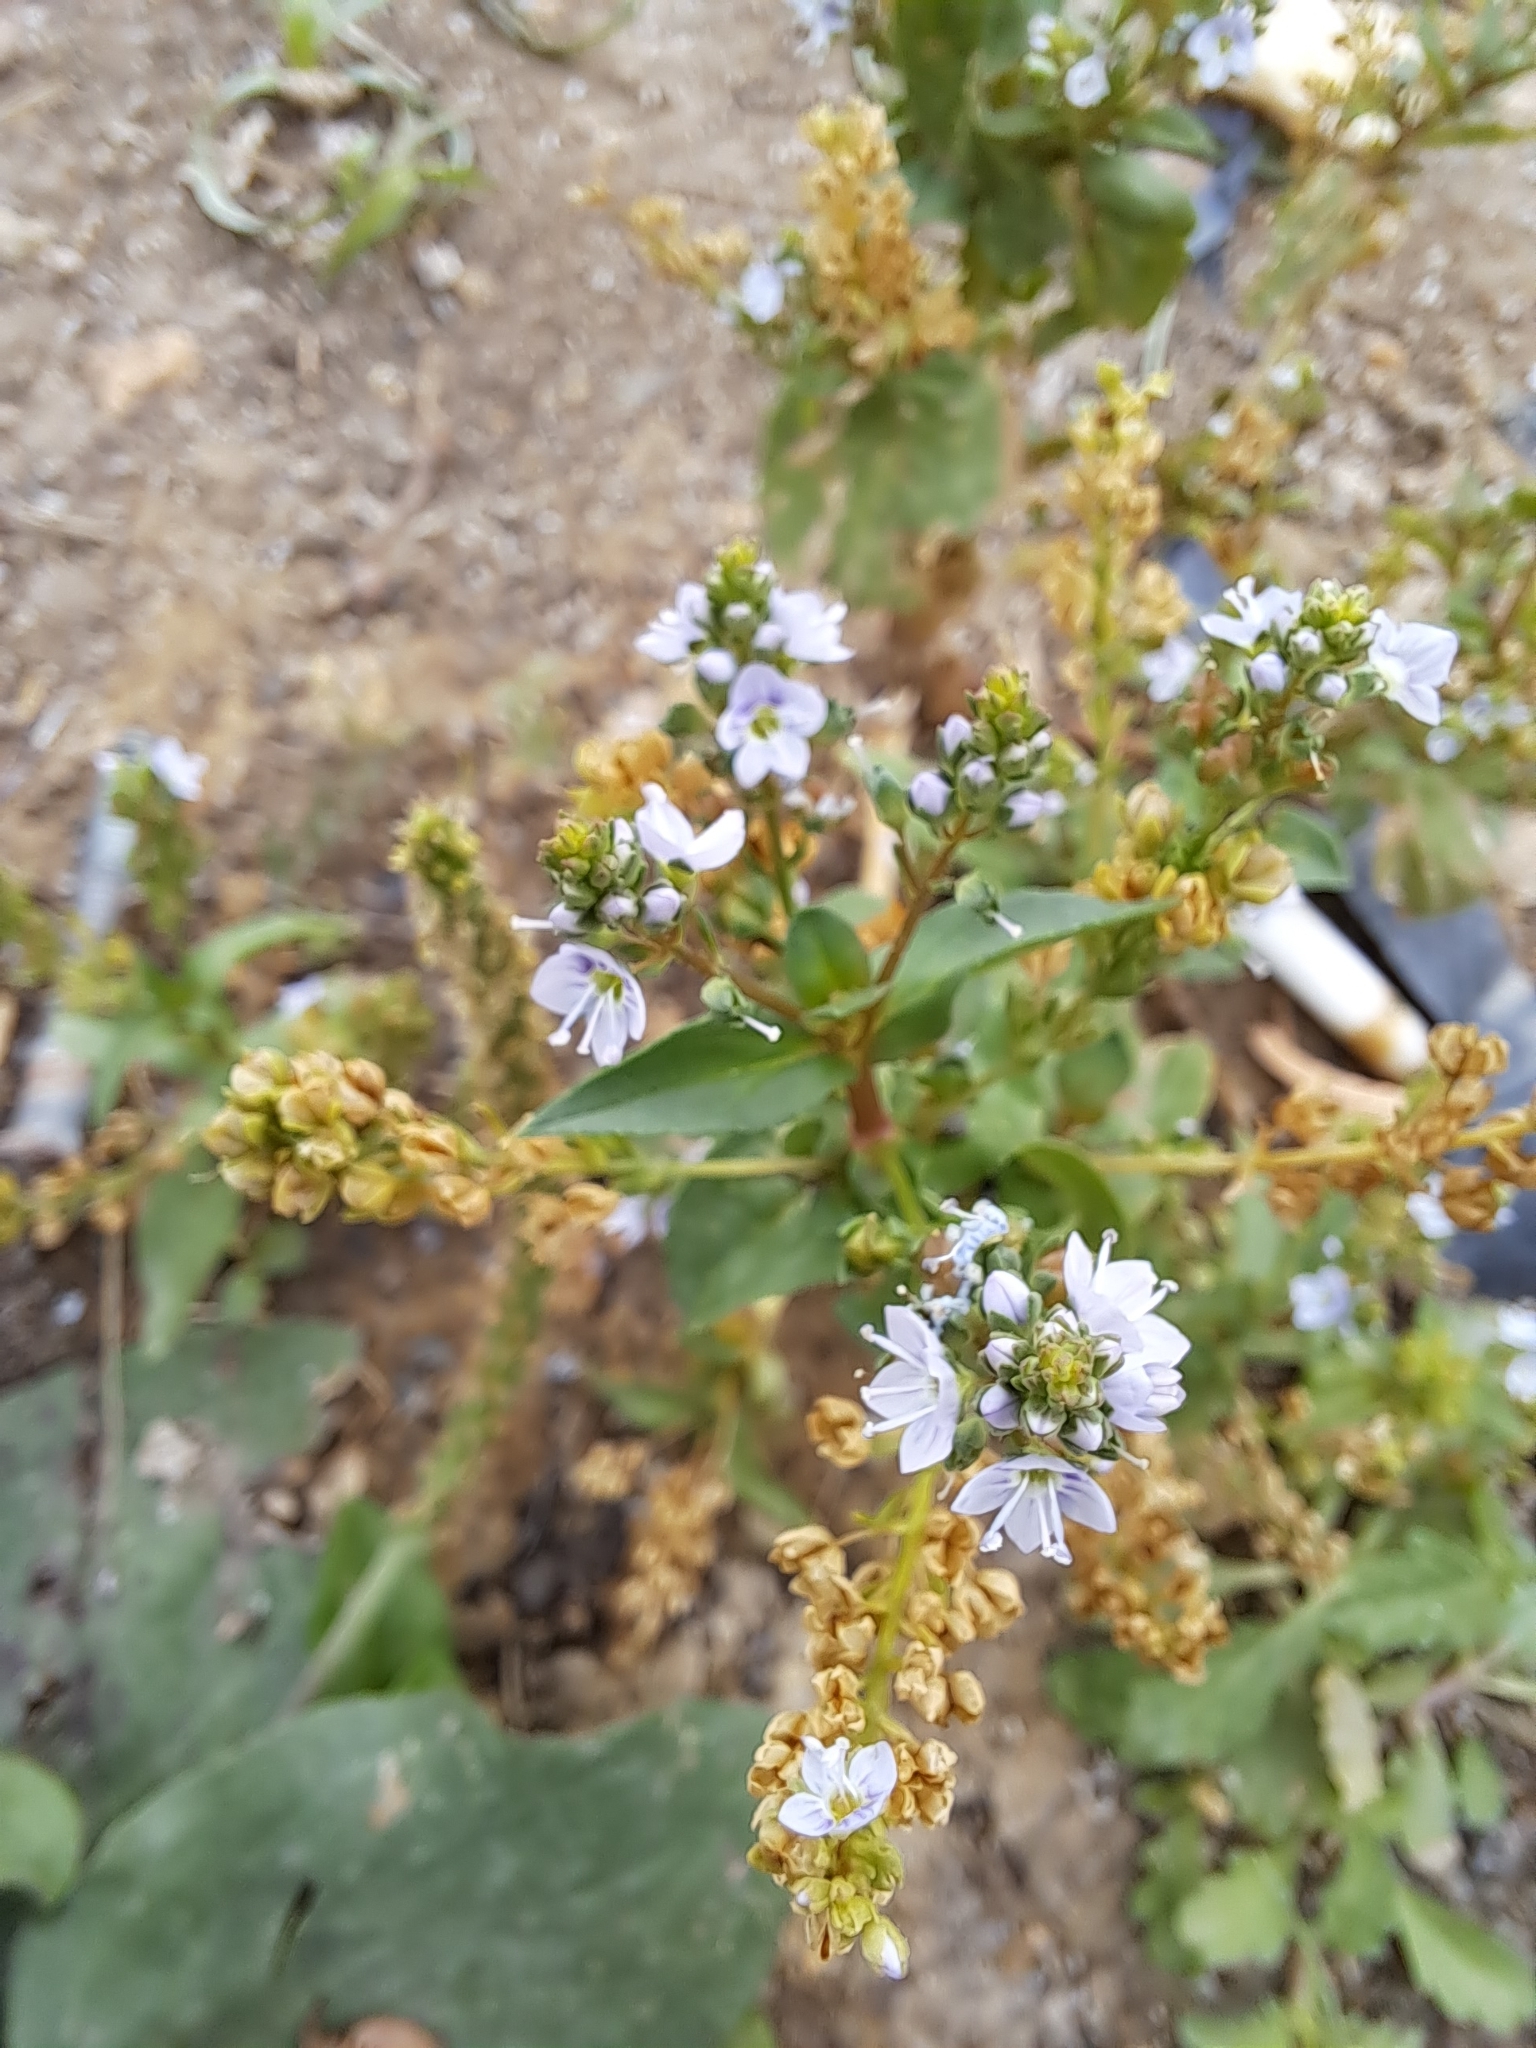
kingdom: Plantae
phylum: Tracheophyta
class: Magnoliopsida
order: Lamiales
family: Plantaginaceae
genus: Veronica
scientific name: Veronica anagallis-aquatica
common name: Water speedwell
